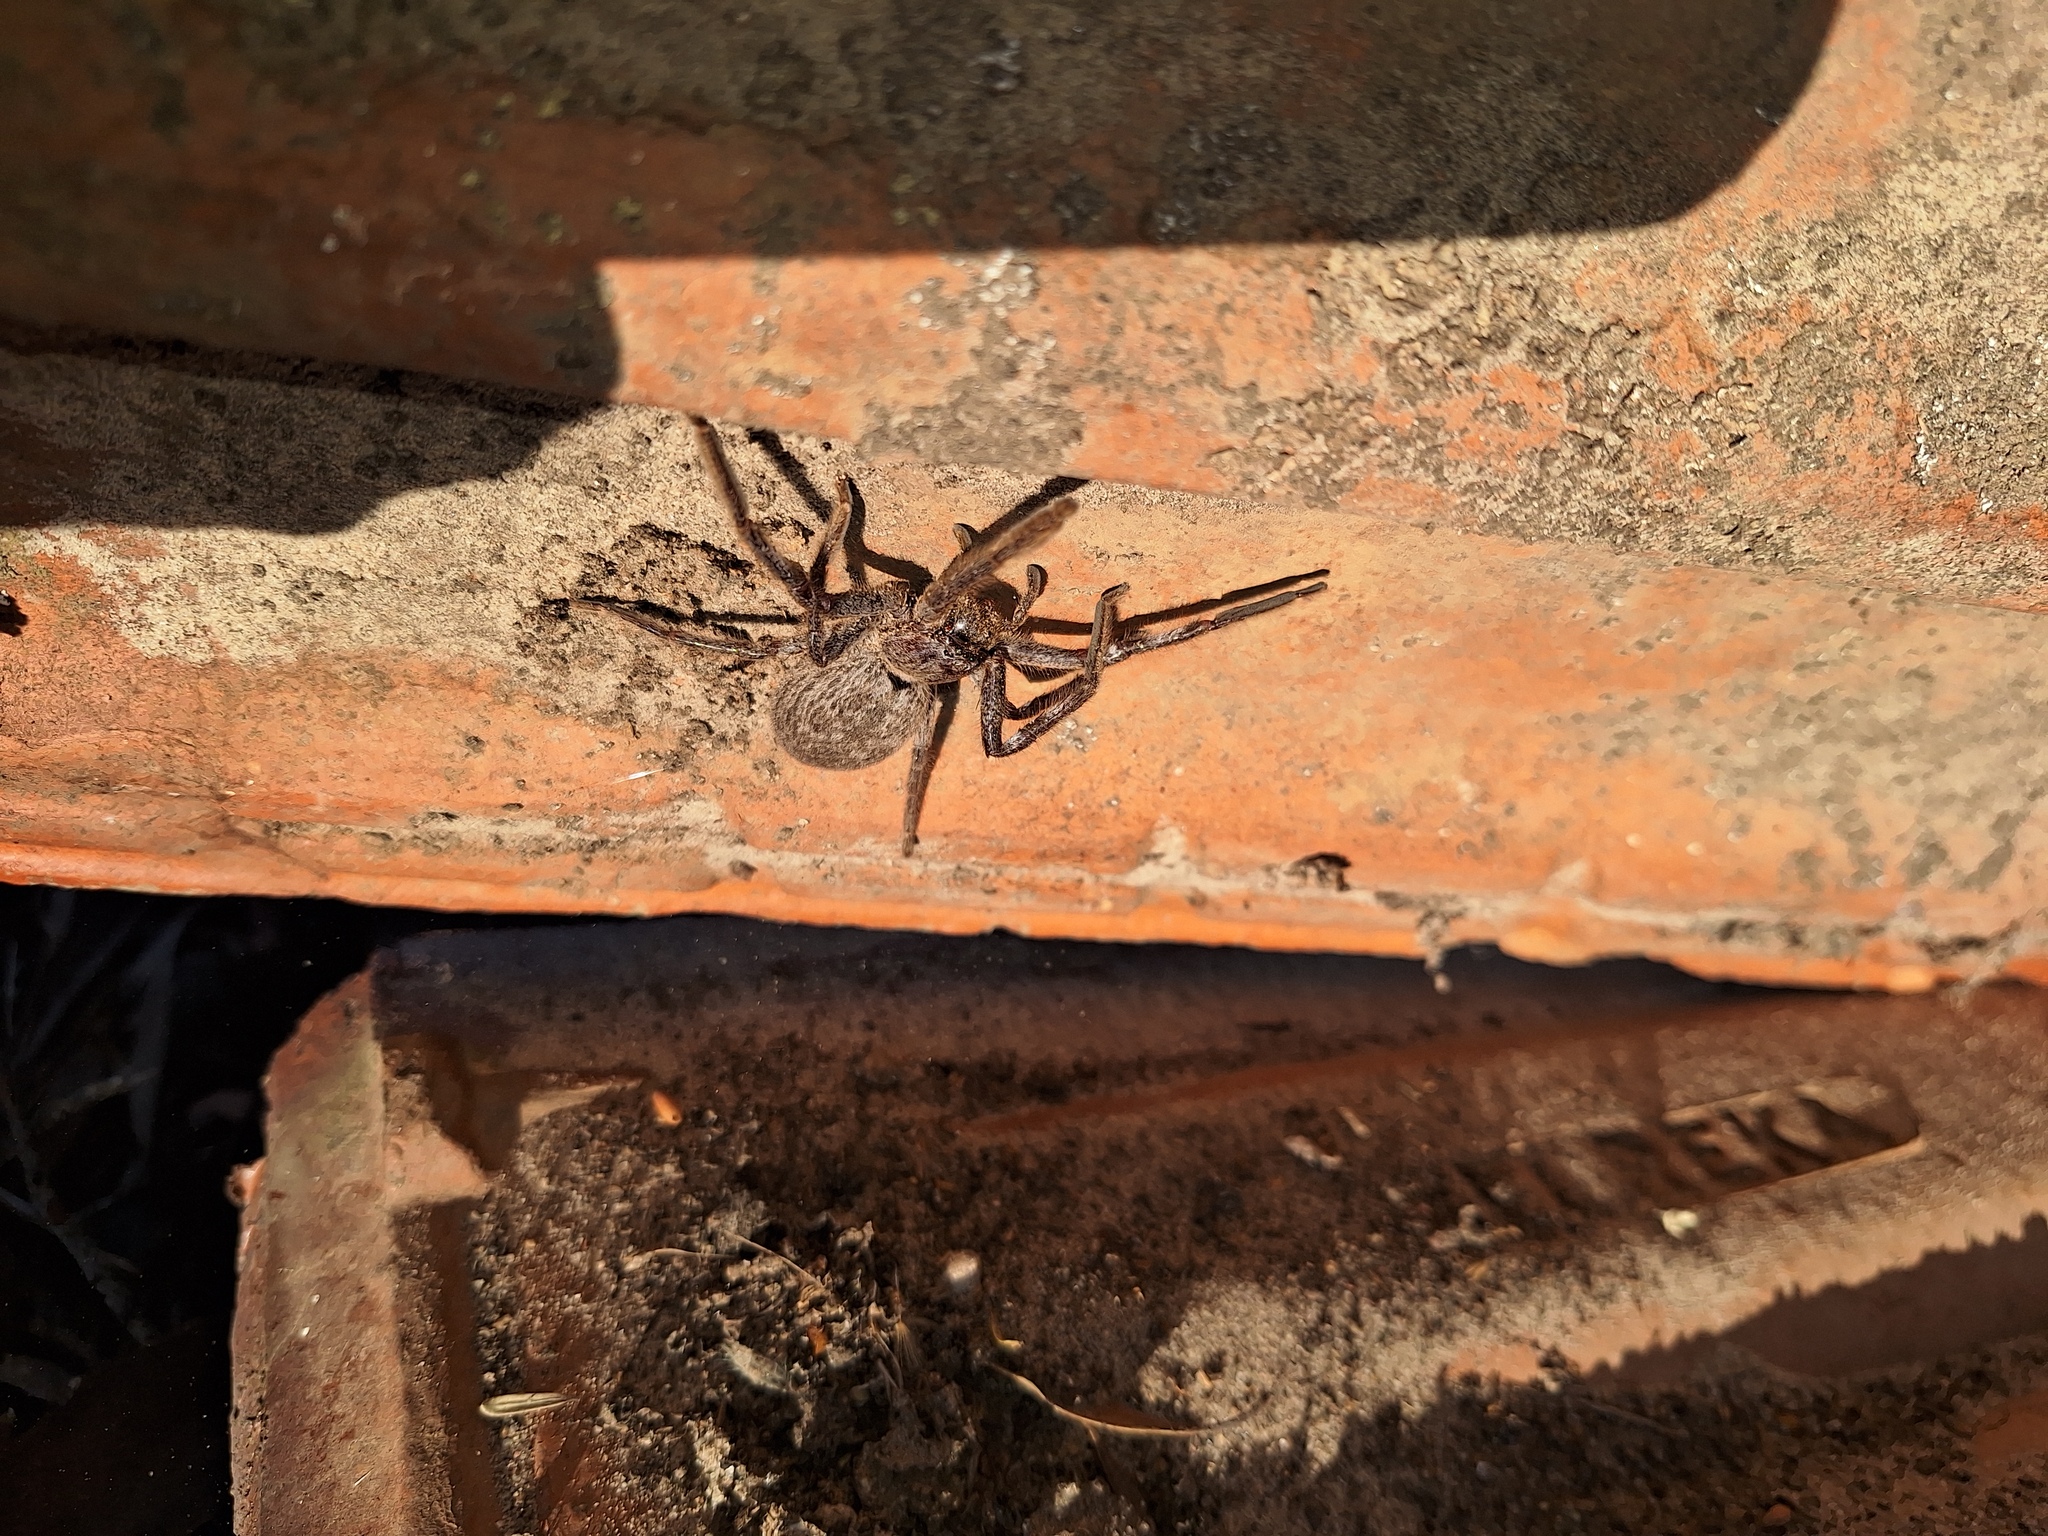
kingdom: Animalia
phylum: Arthropoda
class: Arachnida
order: Araneae
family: Sparassidae
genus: Isopeda
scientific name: Isopeda leishmanni
